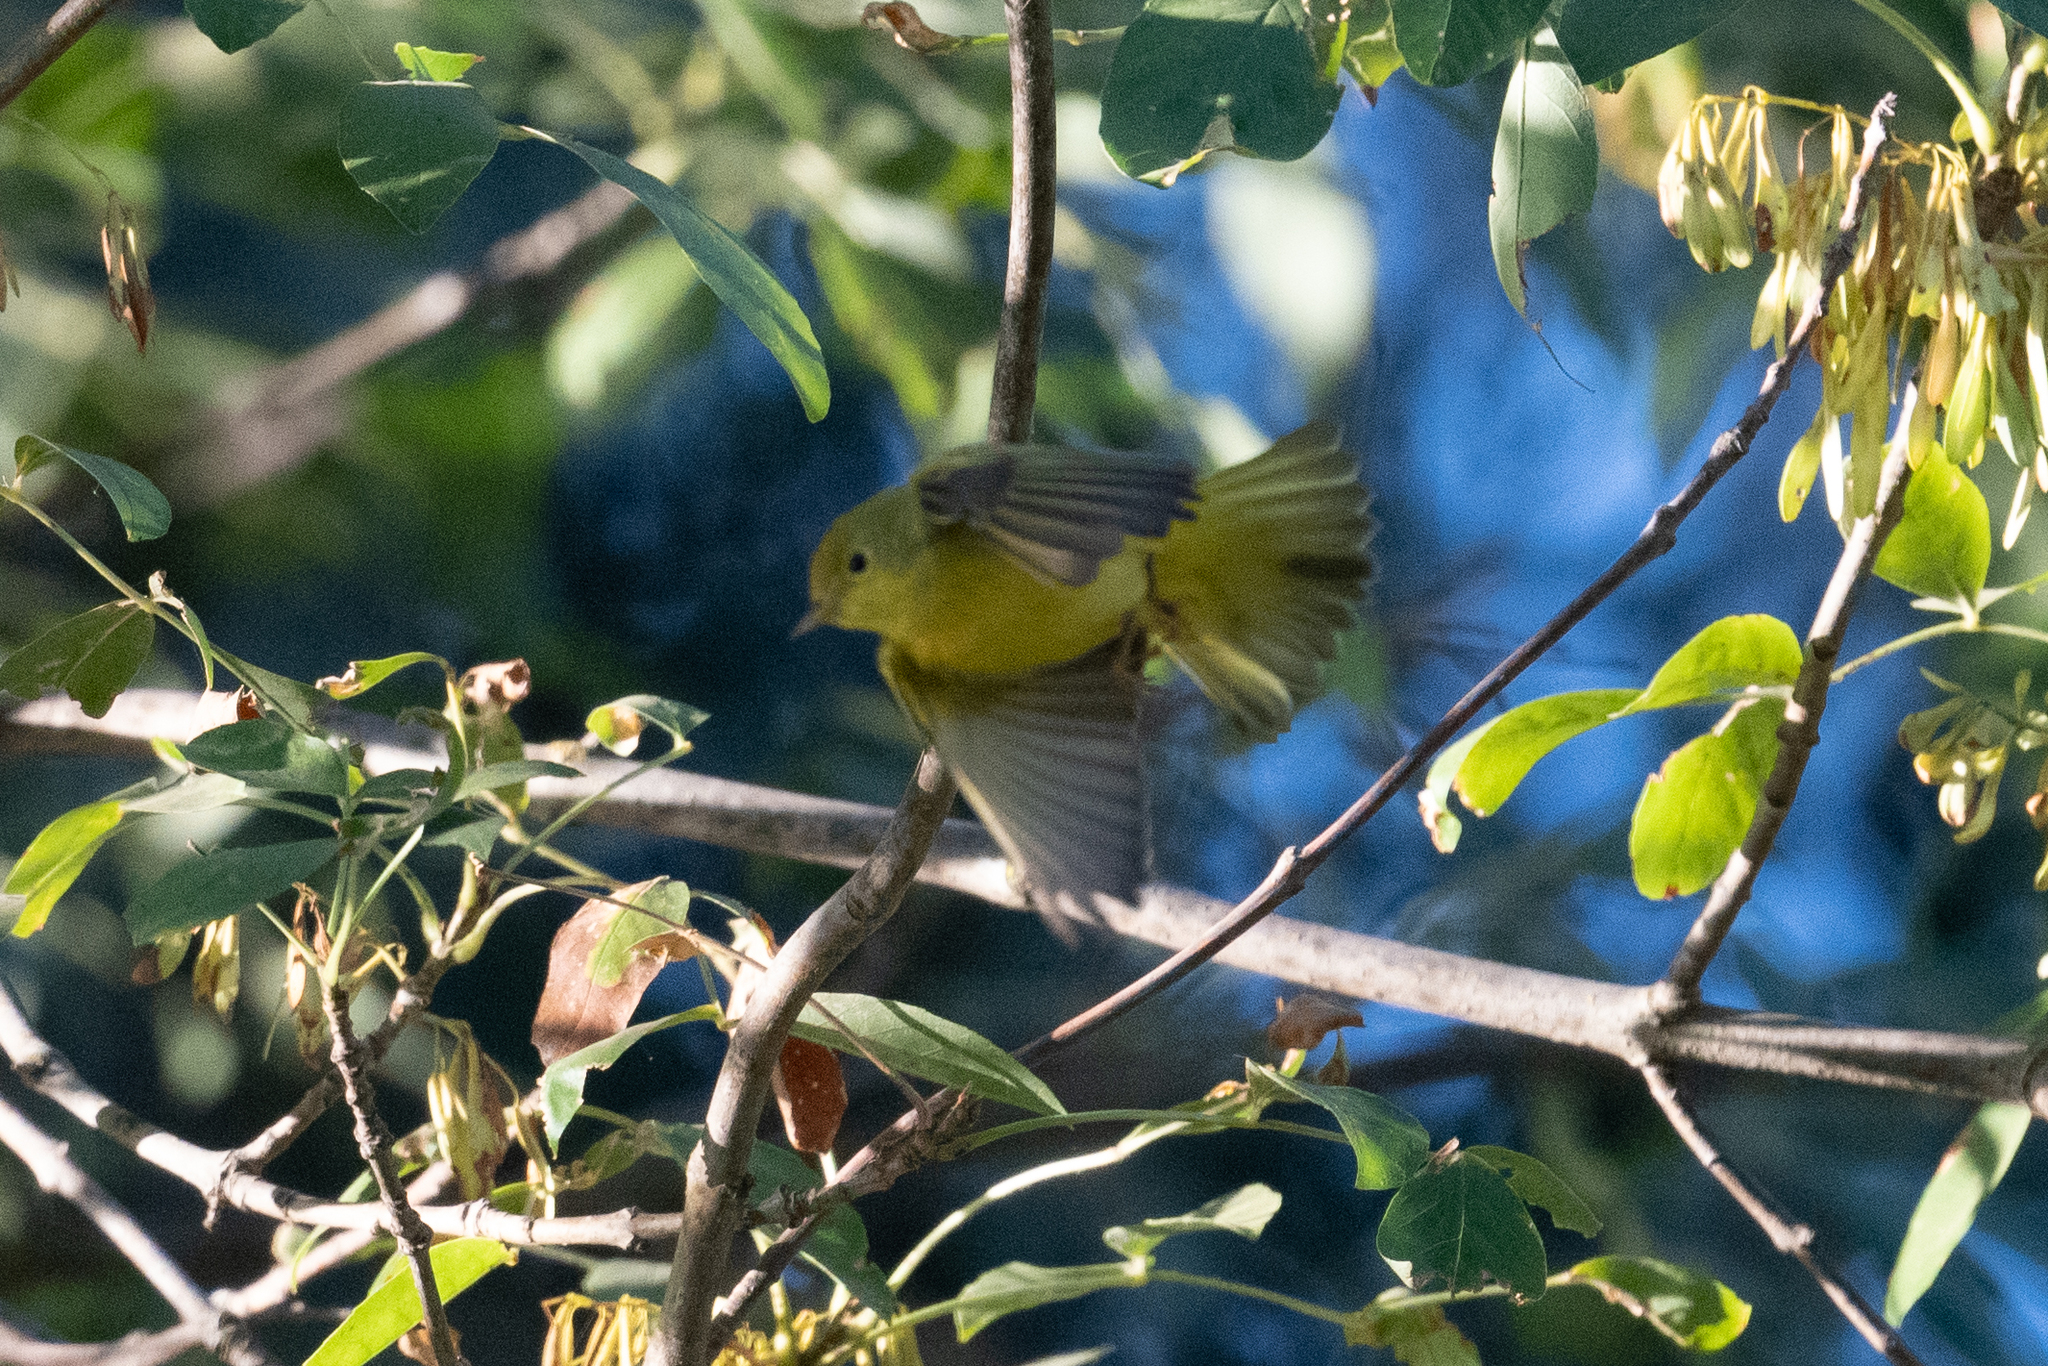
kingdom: Animalia
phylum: Chordata
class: Aves
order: Passeriformes
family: Parulidae
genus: Setophaga
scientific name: Setophaga petechia
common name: Yellow warbler
